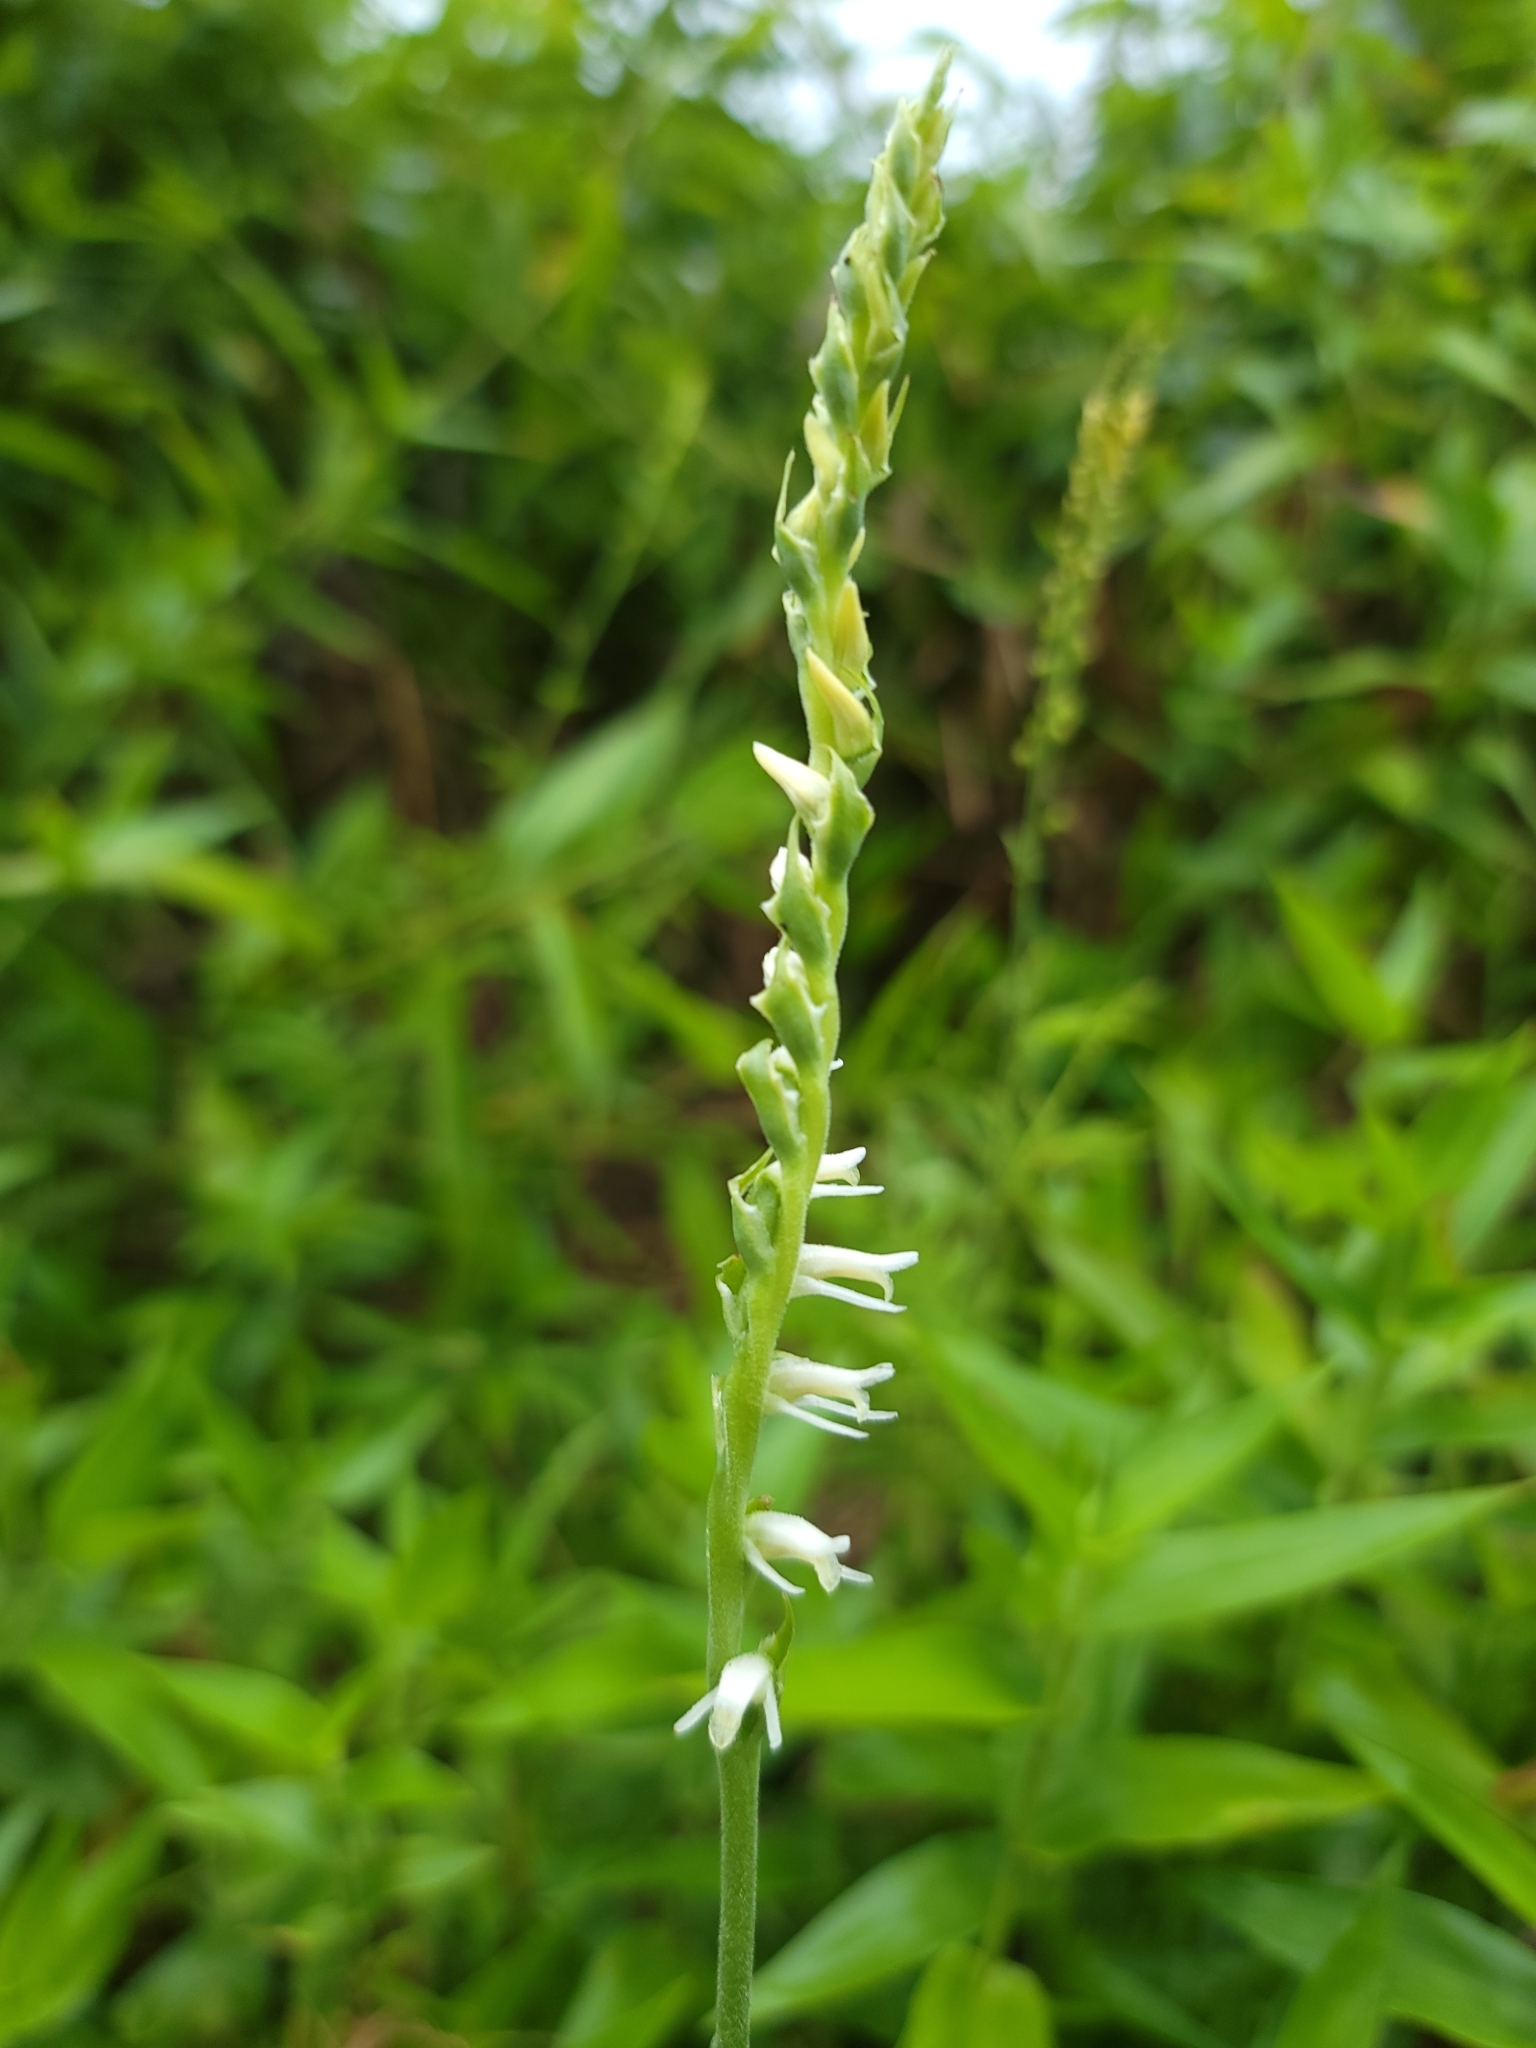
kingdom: Plantae
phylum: Tracheophyta
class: Liliopsida
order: Asparagales
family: Orchidaceae
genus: Spiranthes
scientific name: Spiranthes vernalis
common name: Spring ladies'-tresses
